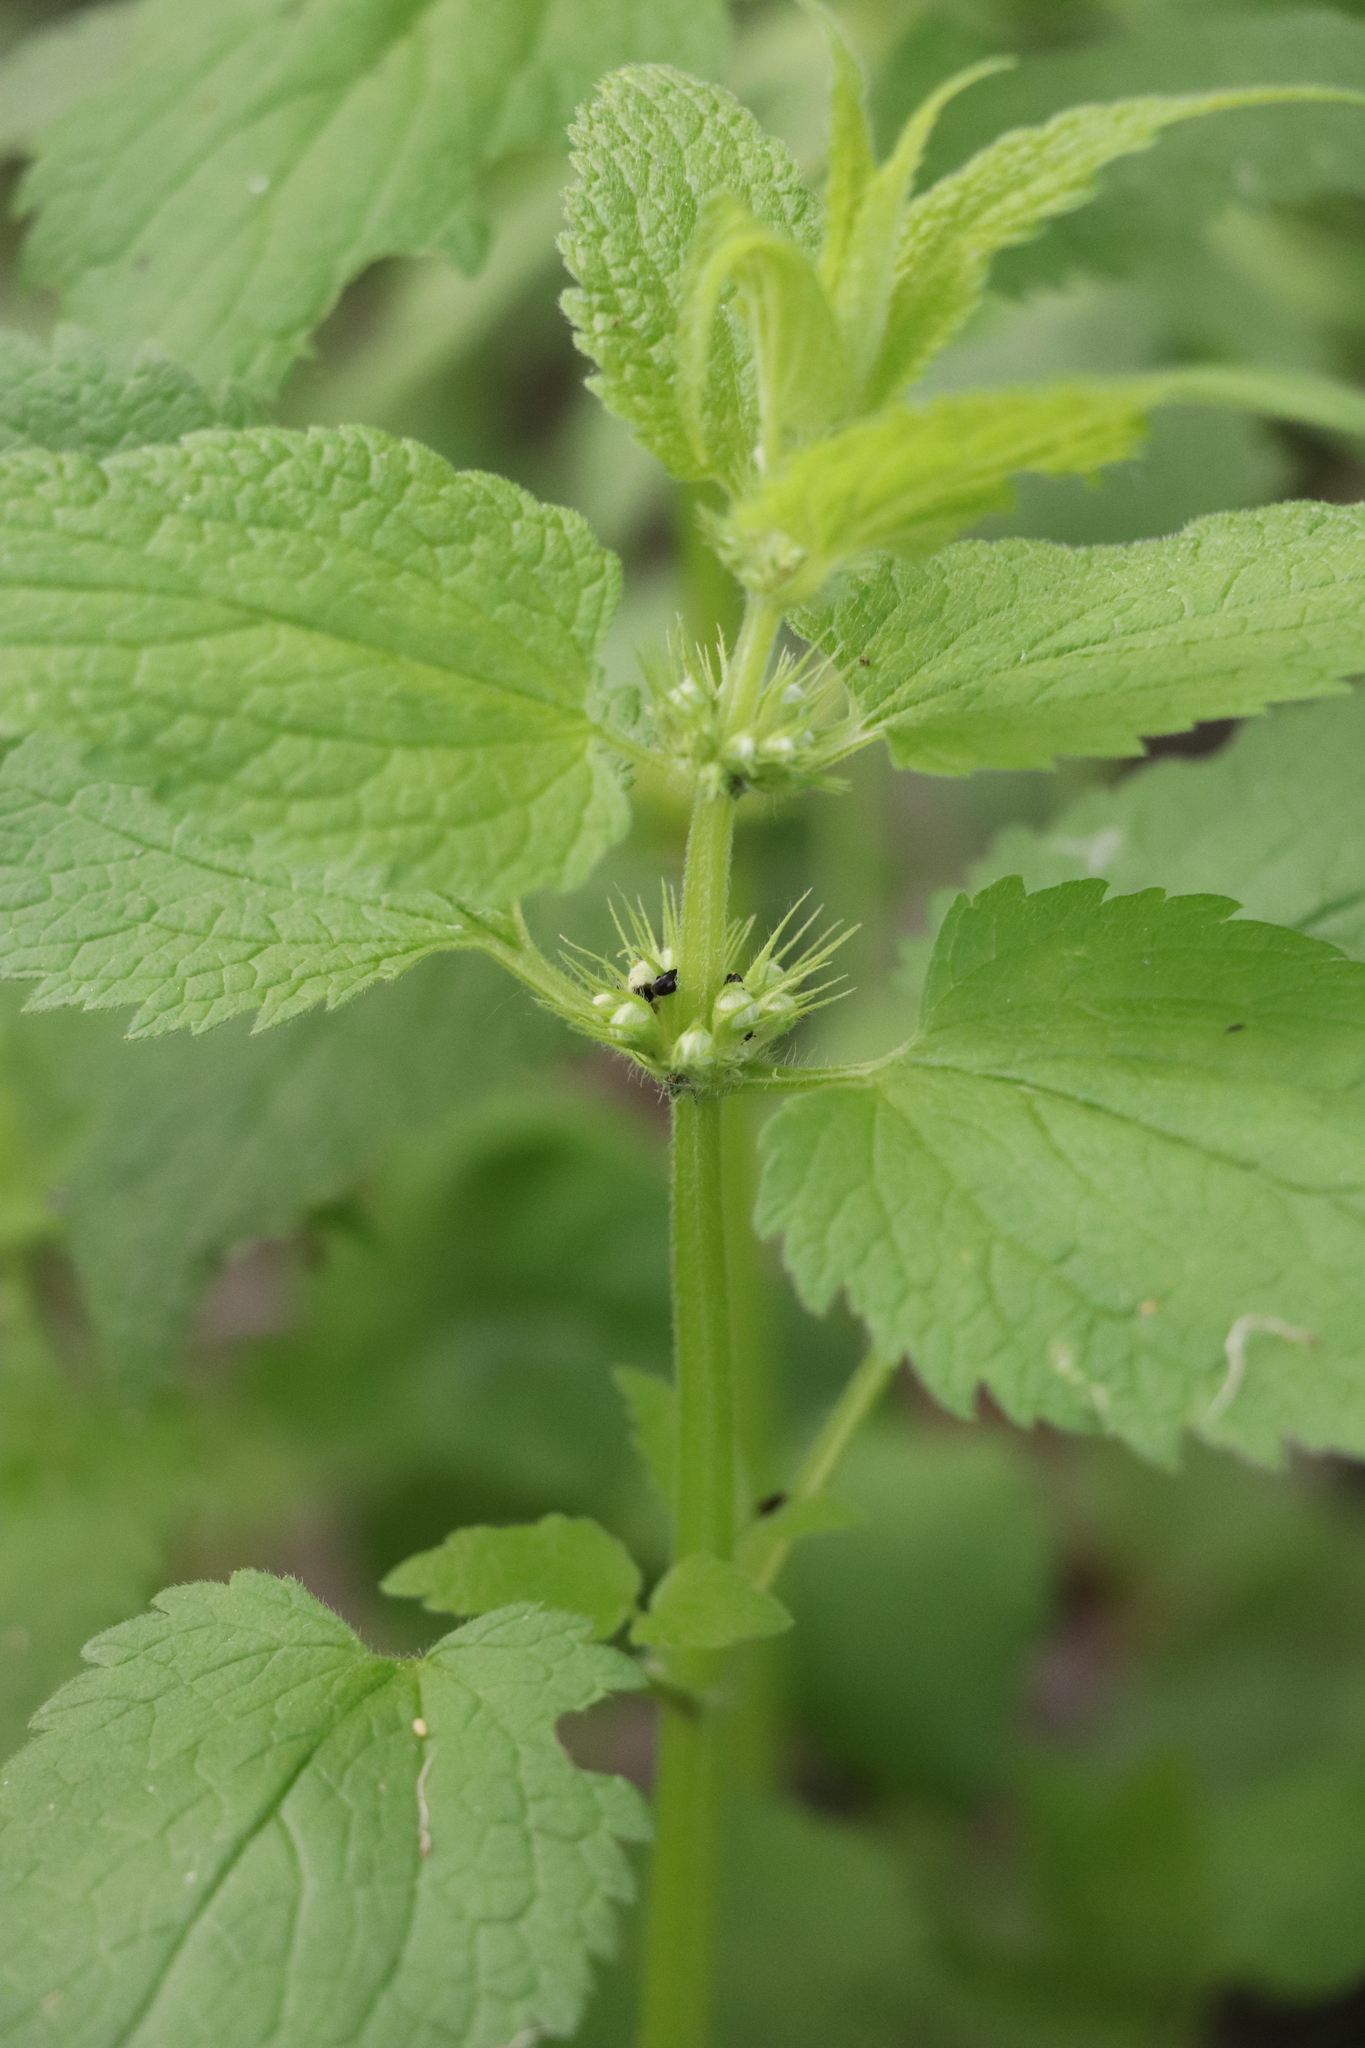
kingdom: Plantae
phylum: Tracheophyta
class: Magnoliopsida
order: Lamiales
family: Lamiaceae
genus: Lamium
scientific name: Lamium album
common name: White dead-nettle
